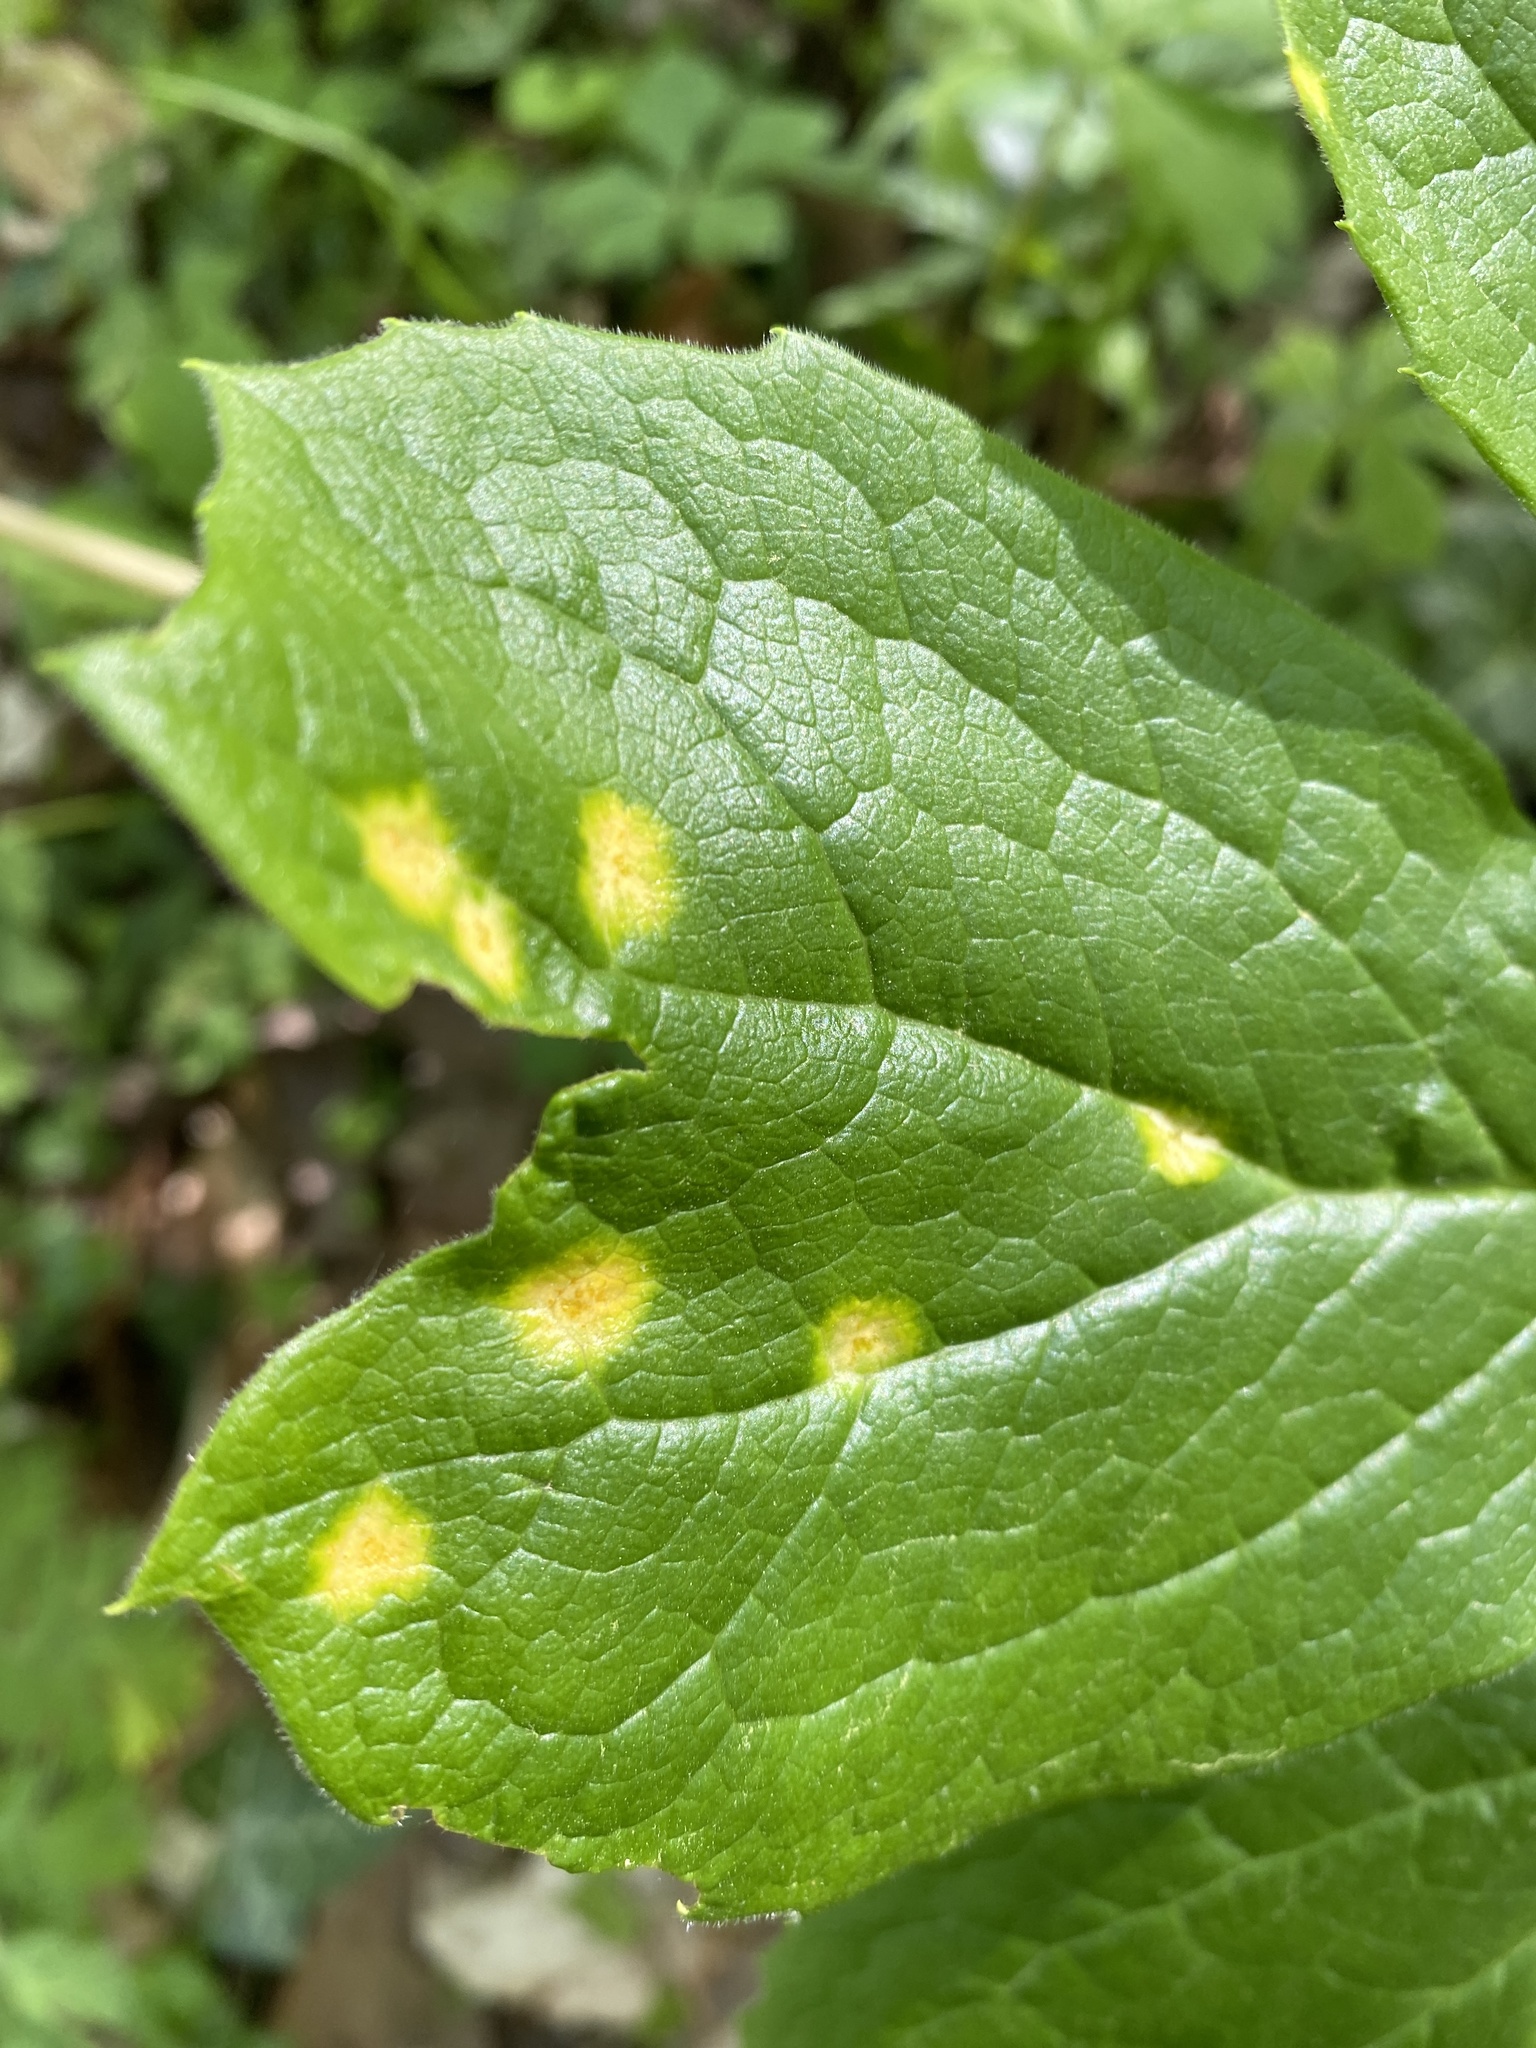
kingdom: Fungi
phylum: Basidiomycota
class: Pucciniomycetes
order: Pucciniales
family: Pucciniaceae
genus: Puccinia
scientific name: Puccinia podophylli
